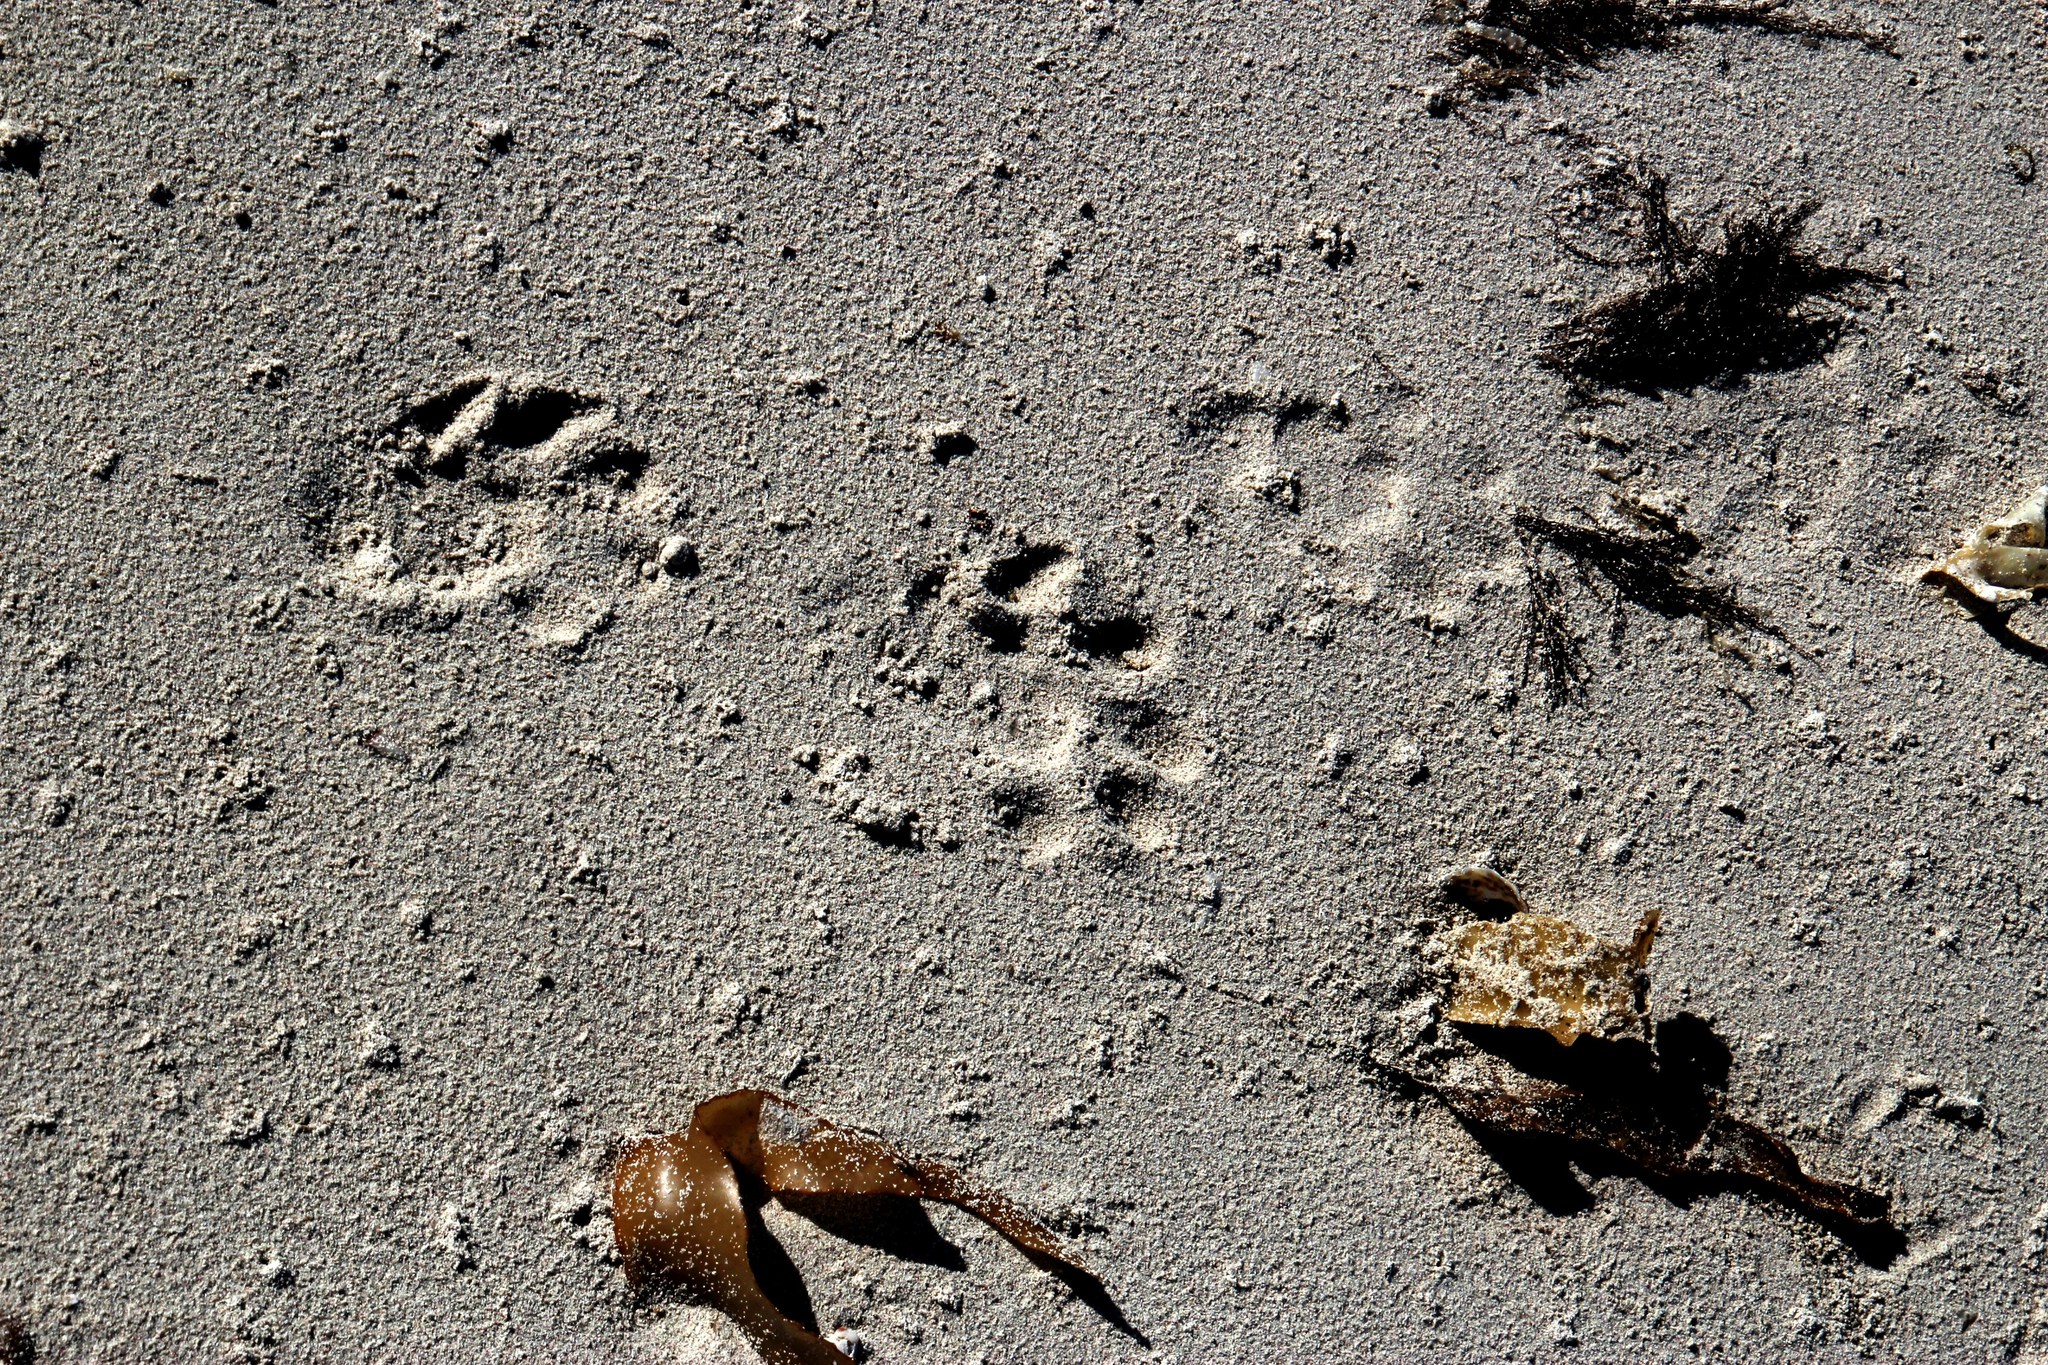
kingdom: Animalia
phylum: Chordata
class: Mammalia
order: Carnivora
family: Mustelidae
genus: Aonyx
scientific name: Aonyx capensis
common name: African clawless otter
